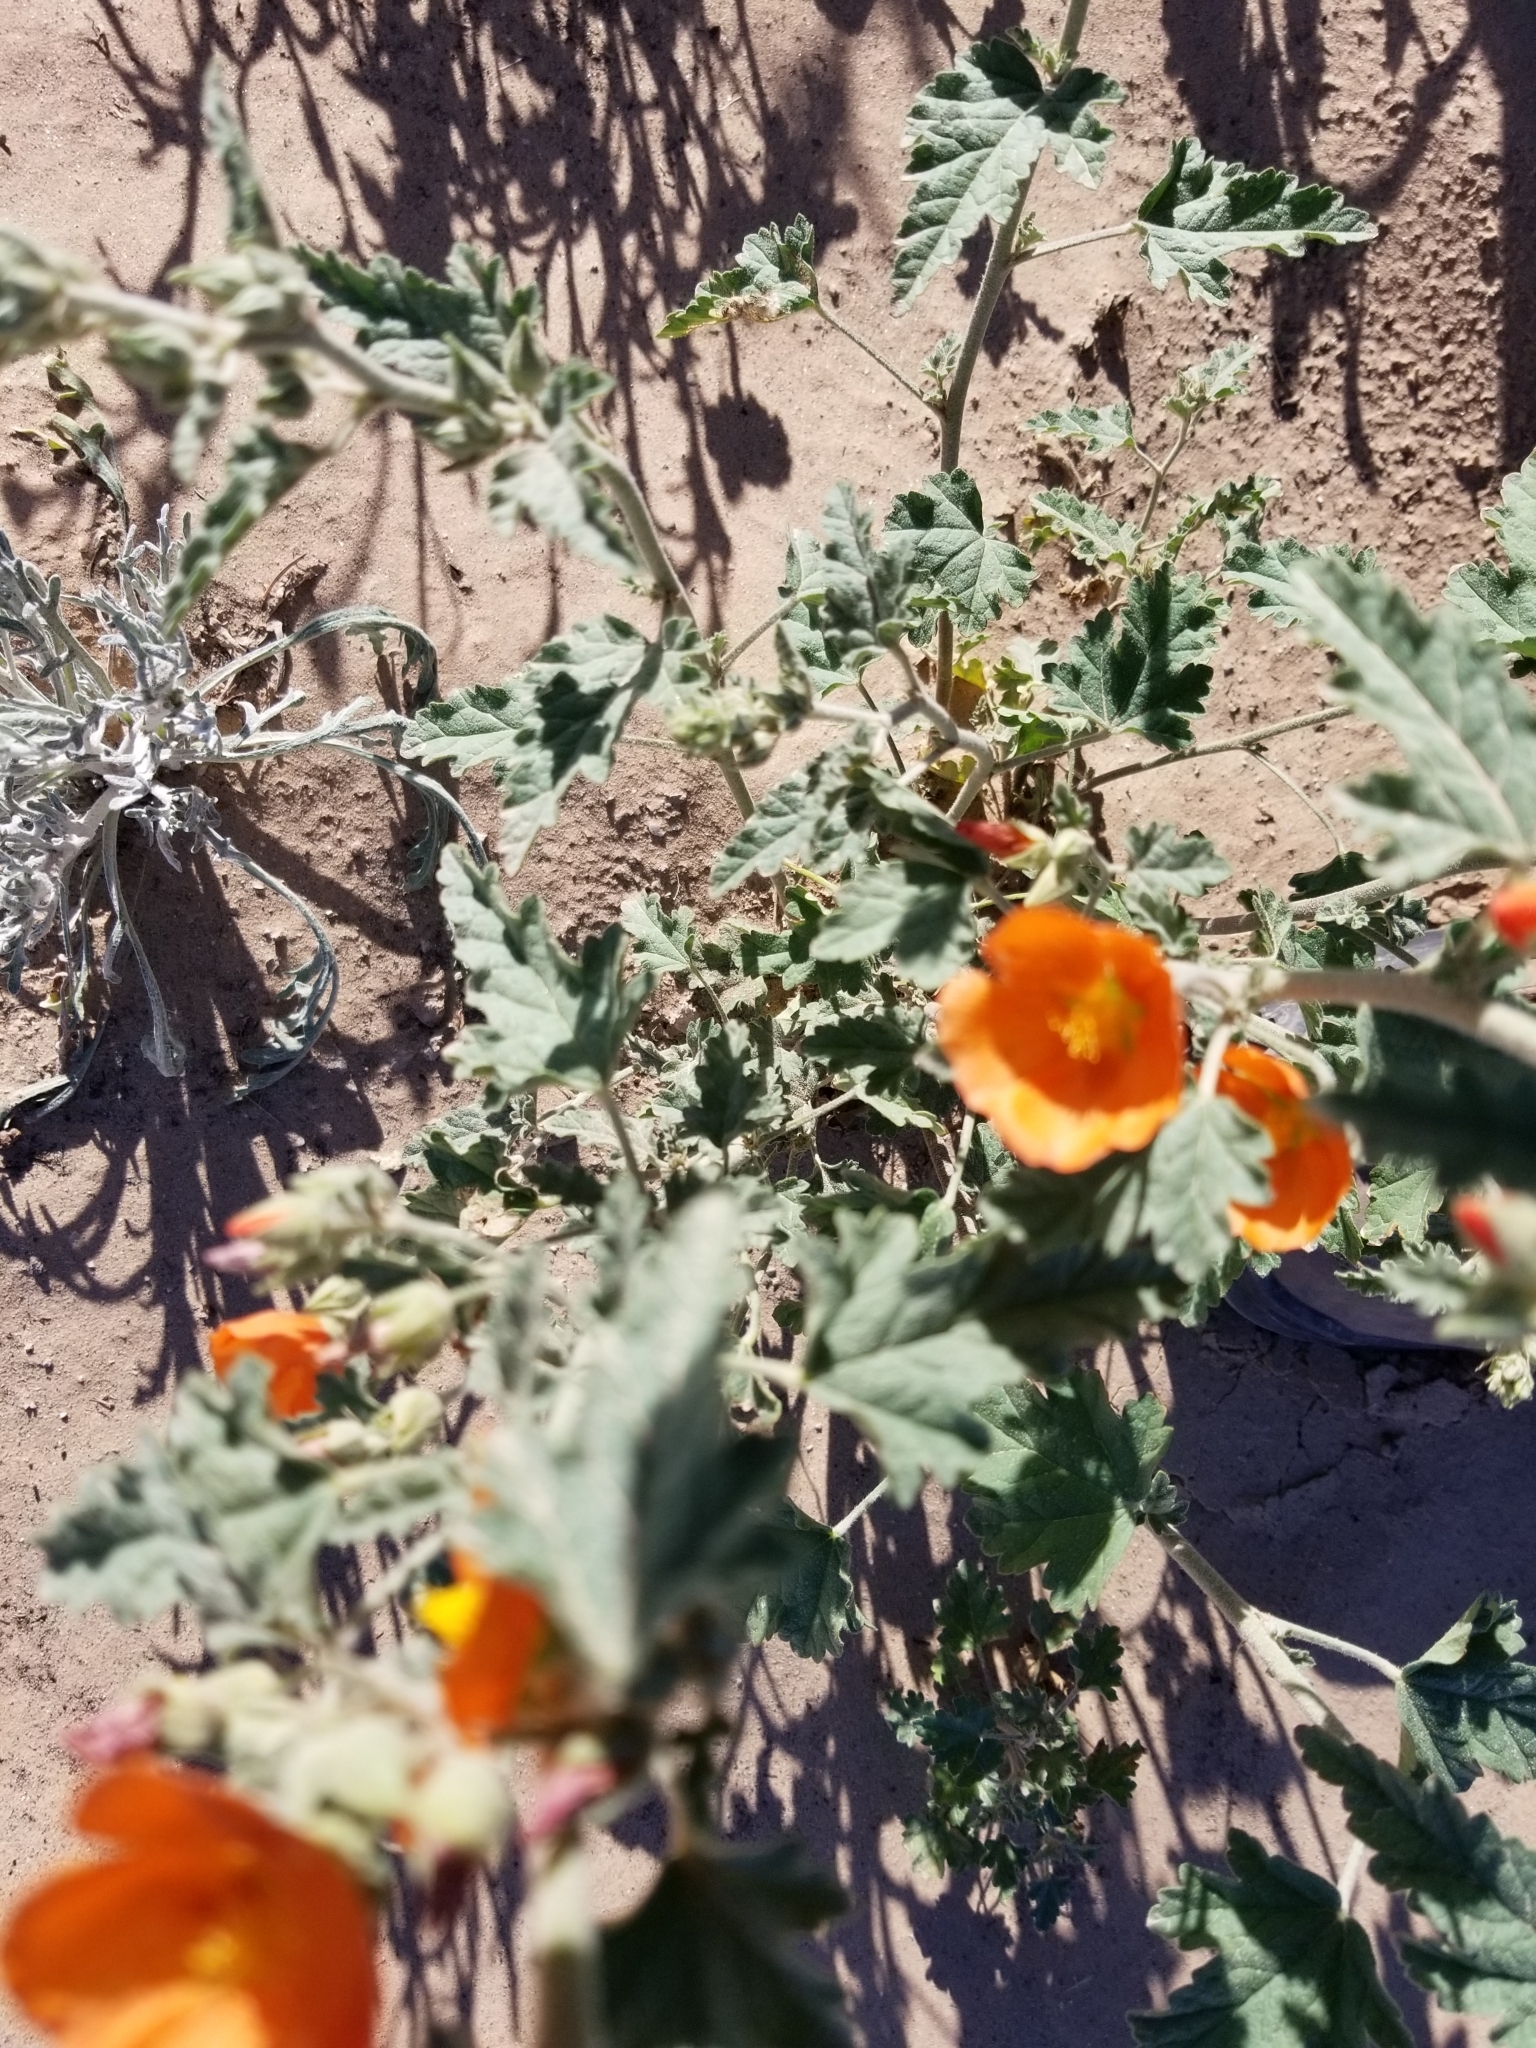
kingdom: Plantae
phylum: Tracheophyta
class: Magnoliopsida
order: Malvales
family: Malvaceae
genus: Sphaeralcea
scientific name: Sphaeralcea ambigua
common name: Apricot globe-mallow
